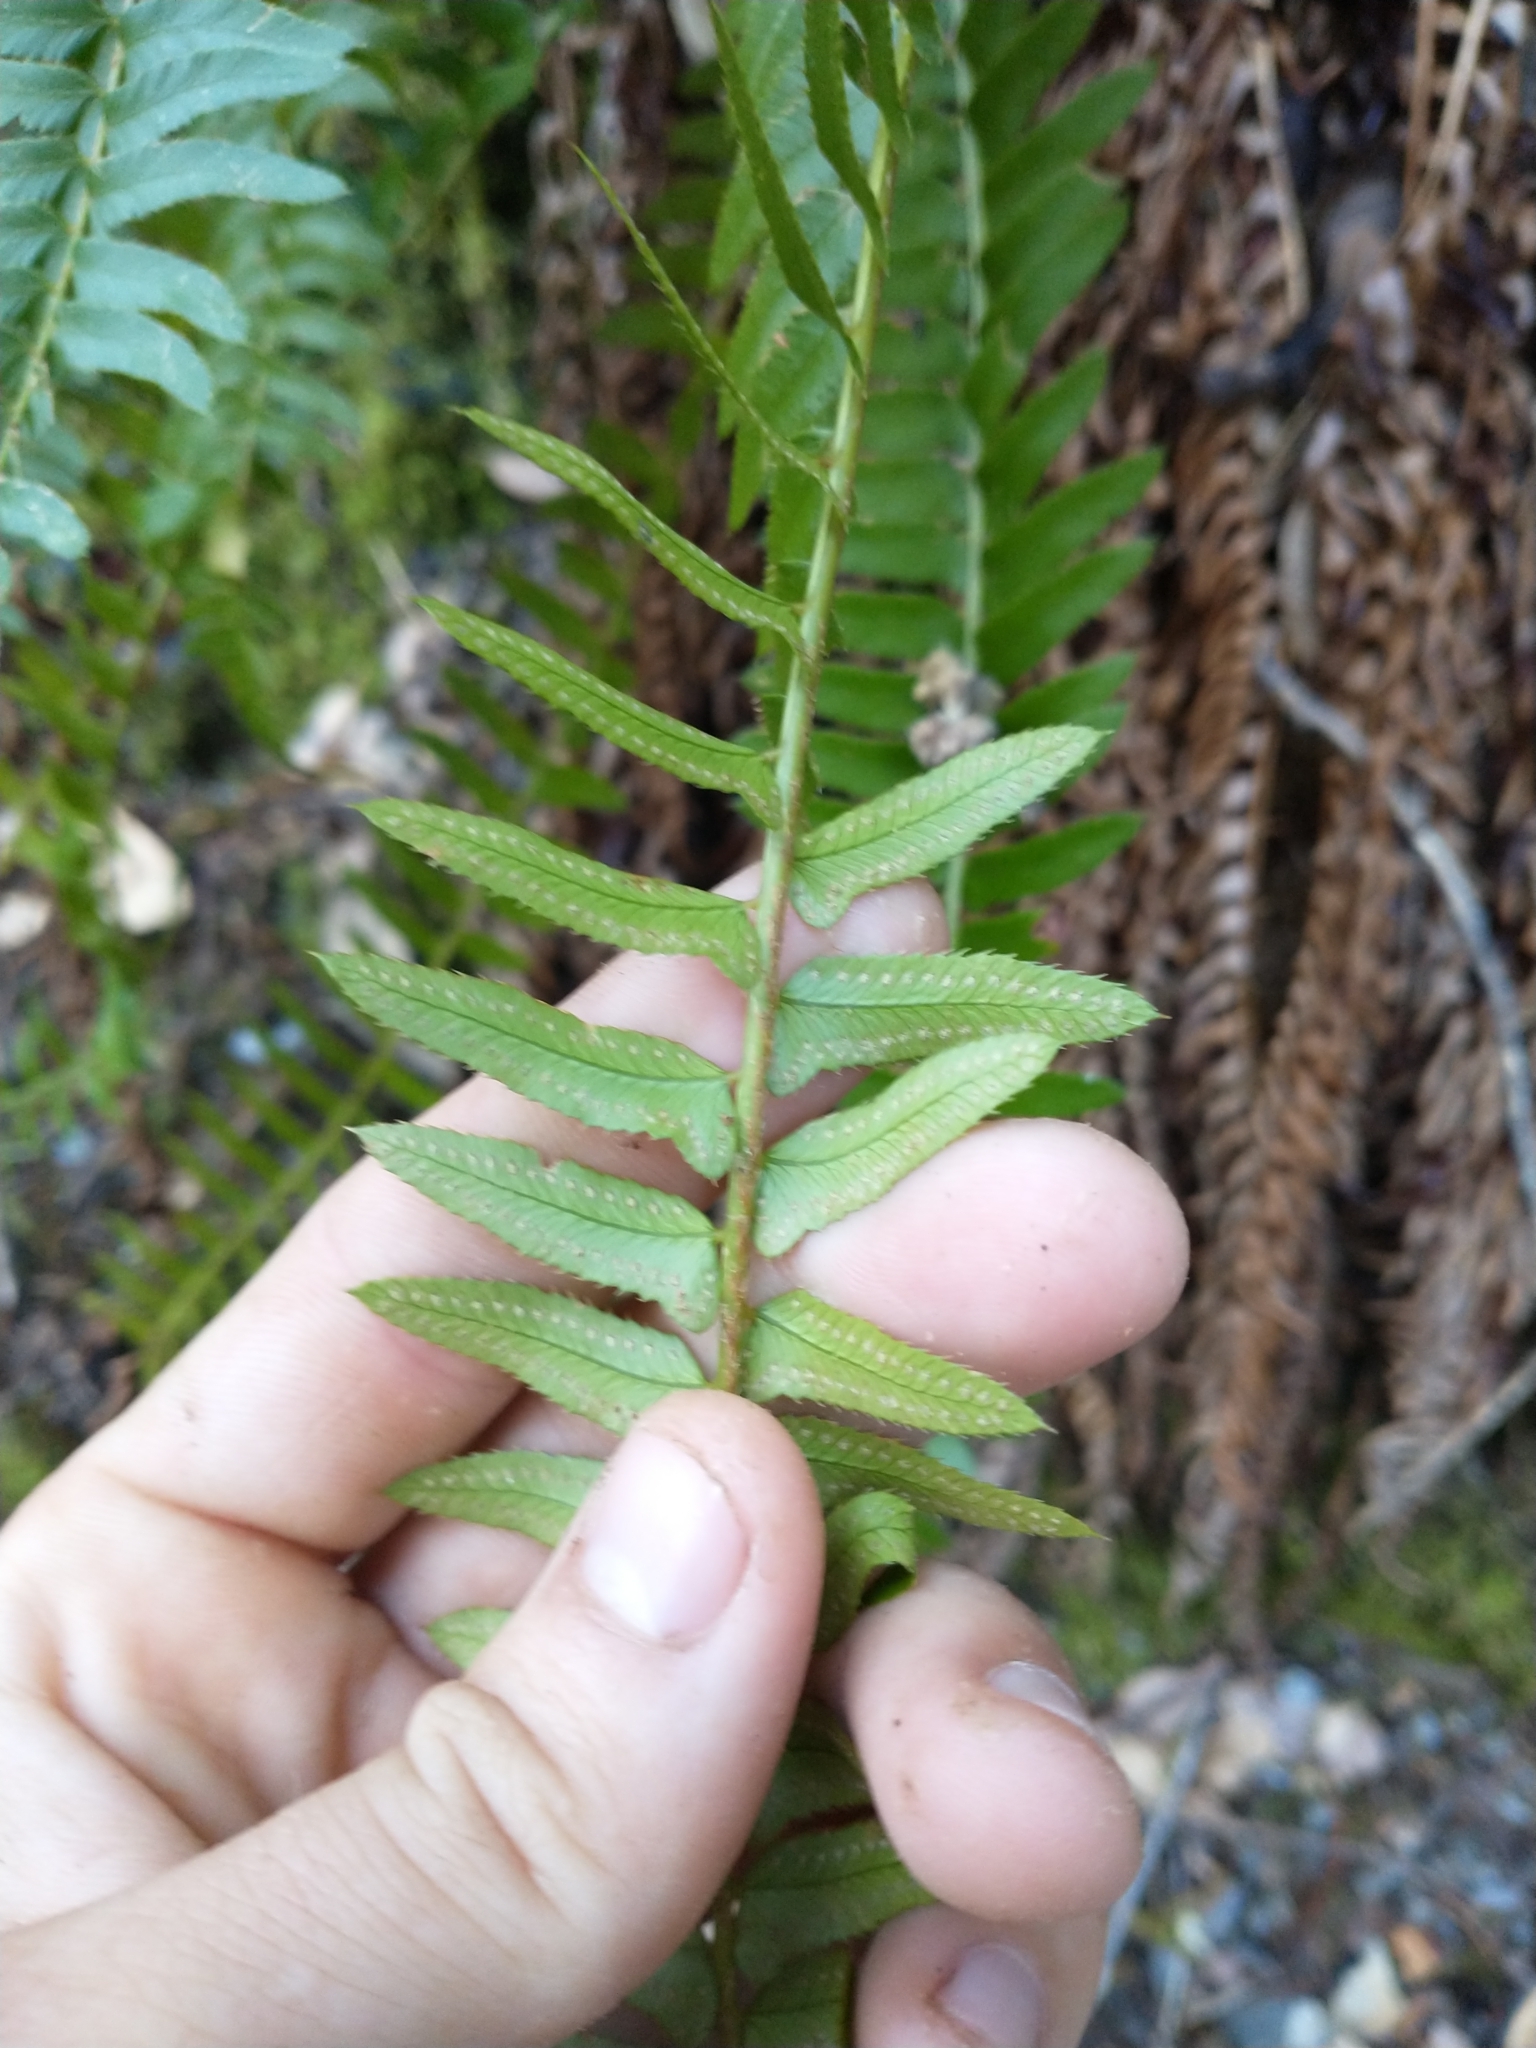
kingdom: Plantae
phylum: Tracheophyta
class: Polypodiopsida
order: Polypodiales
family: Dryopteridaceae
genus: Polystichum
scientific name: Polystichum imbricans
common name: Dwarf western sword fern
